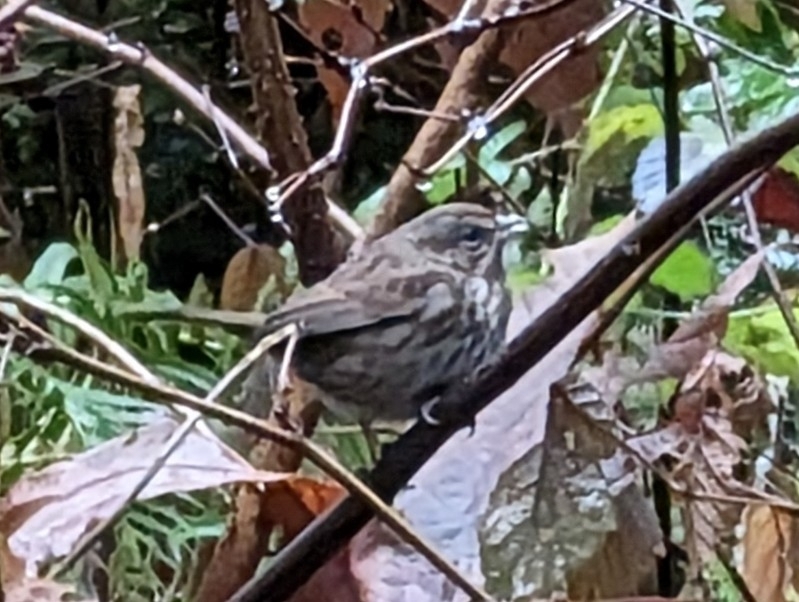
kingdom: Animalia
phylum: Chordata
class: Aves
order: Passeriformes
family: Passerellidae
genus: Melospiza
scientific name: Melospiza melodia
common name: Song sparrow
